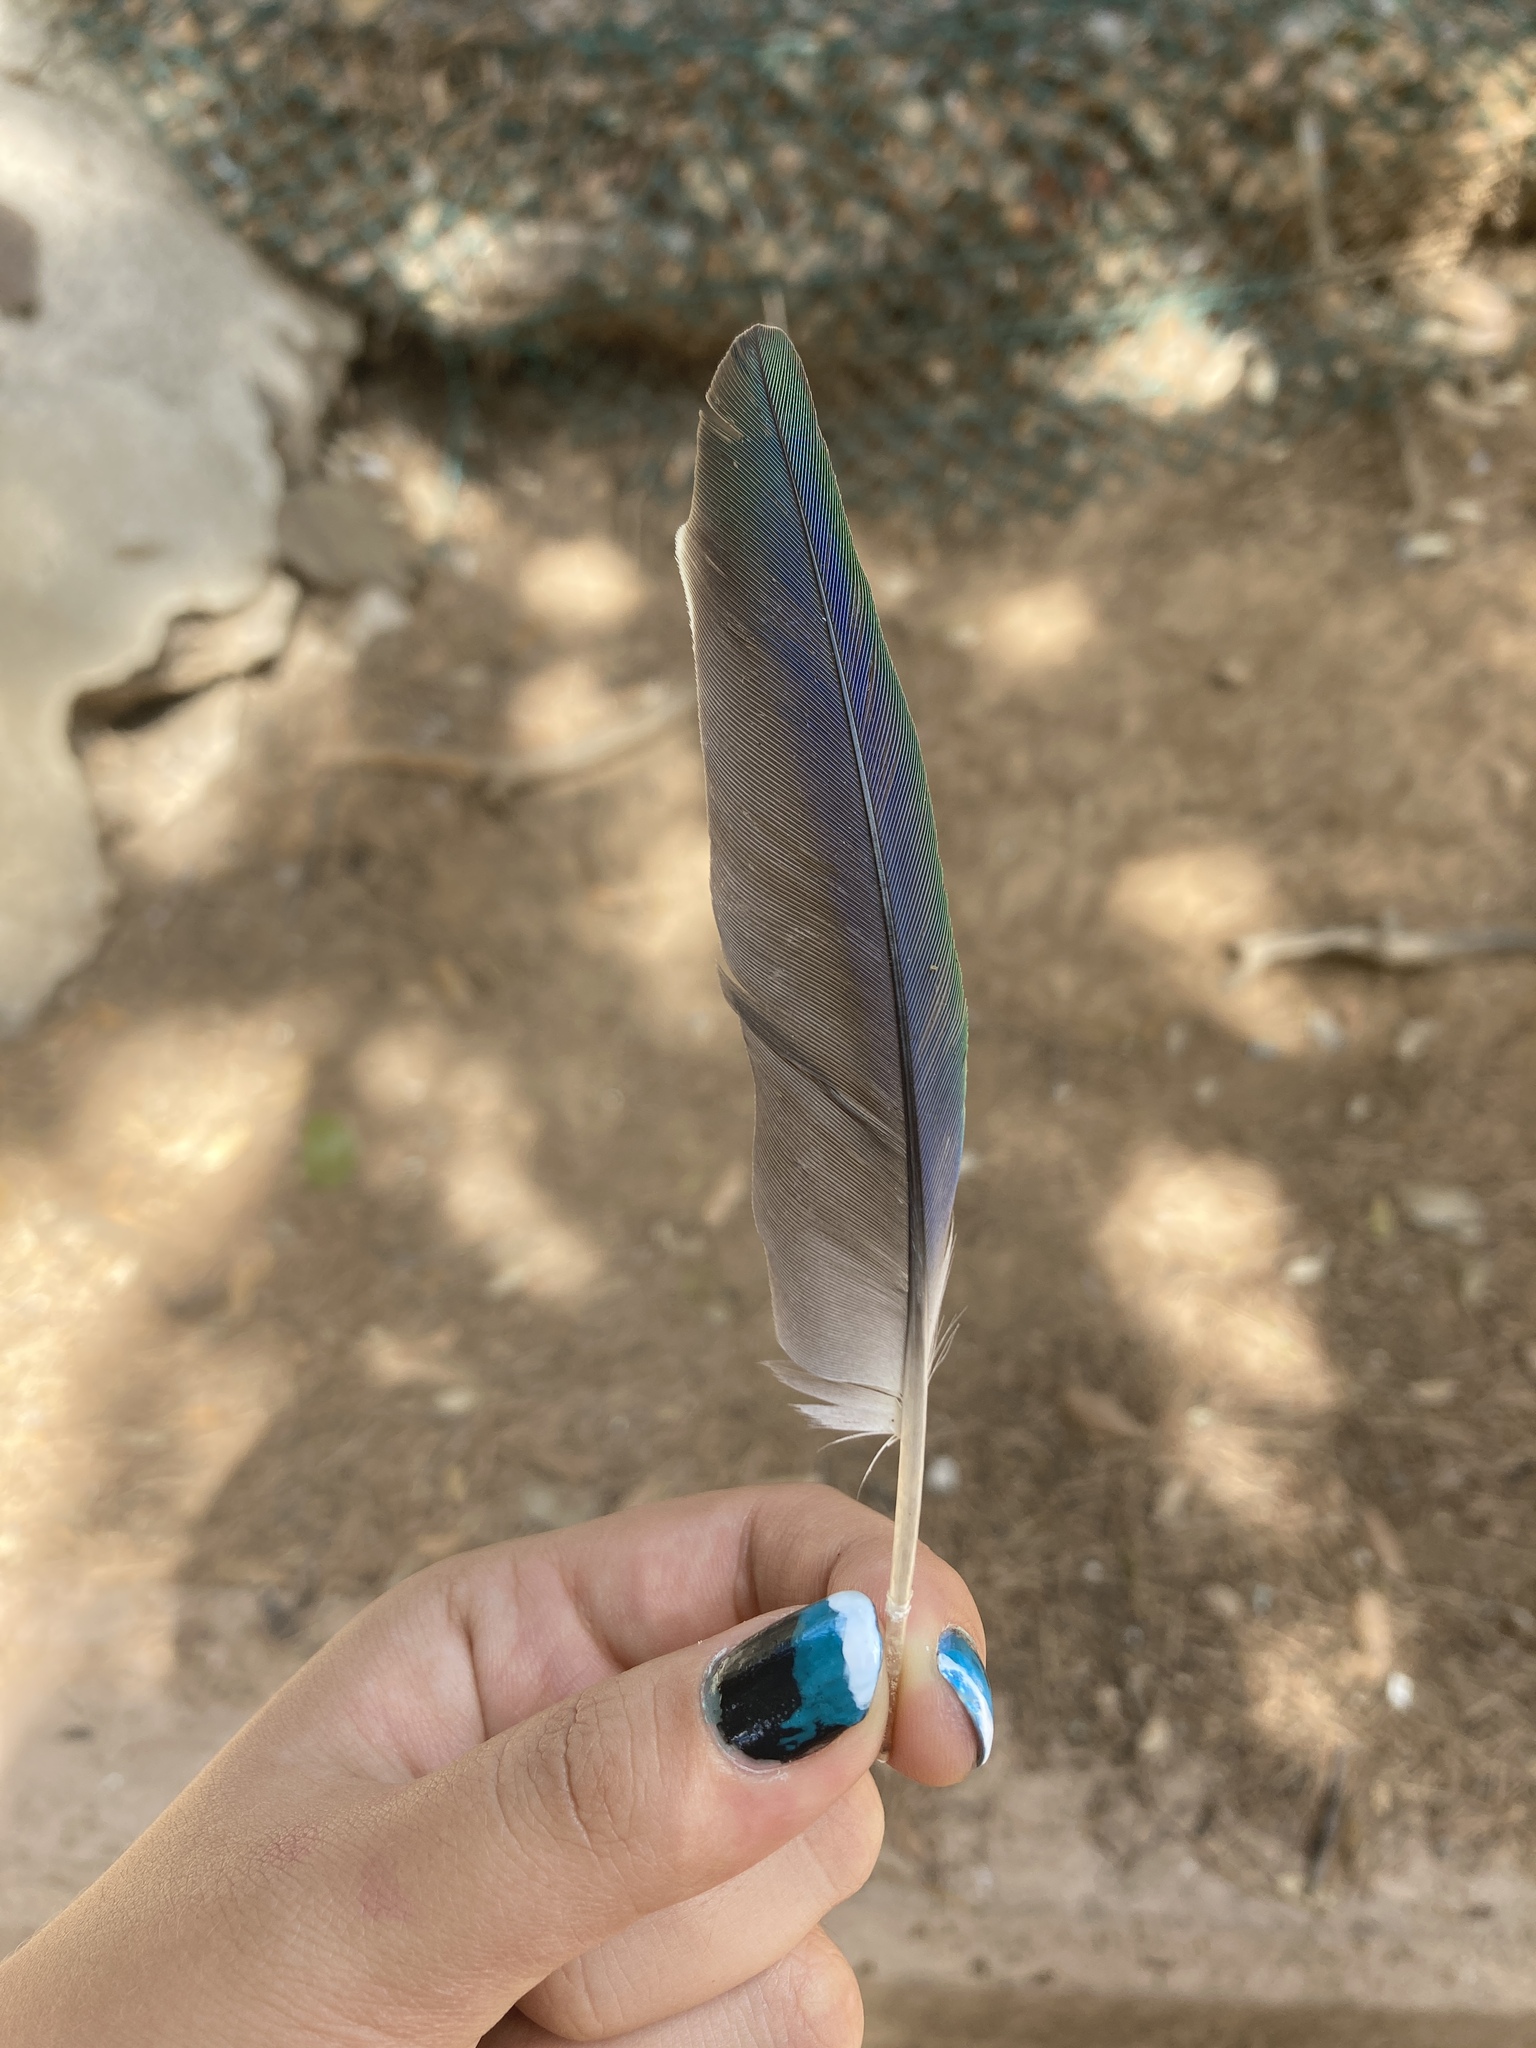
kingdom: Animalia
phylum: Chordata
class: Aves
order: Psittaciformes
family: Psittacidae
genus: Myiopsitta
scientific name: Myiopsitta monachus
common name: Monk parakeet
